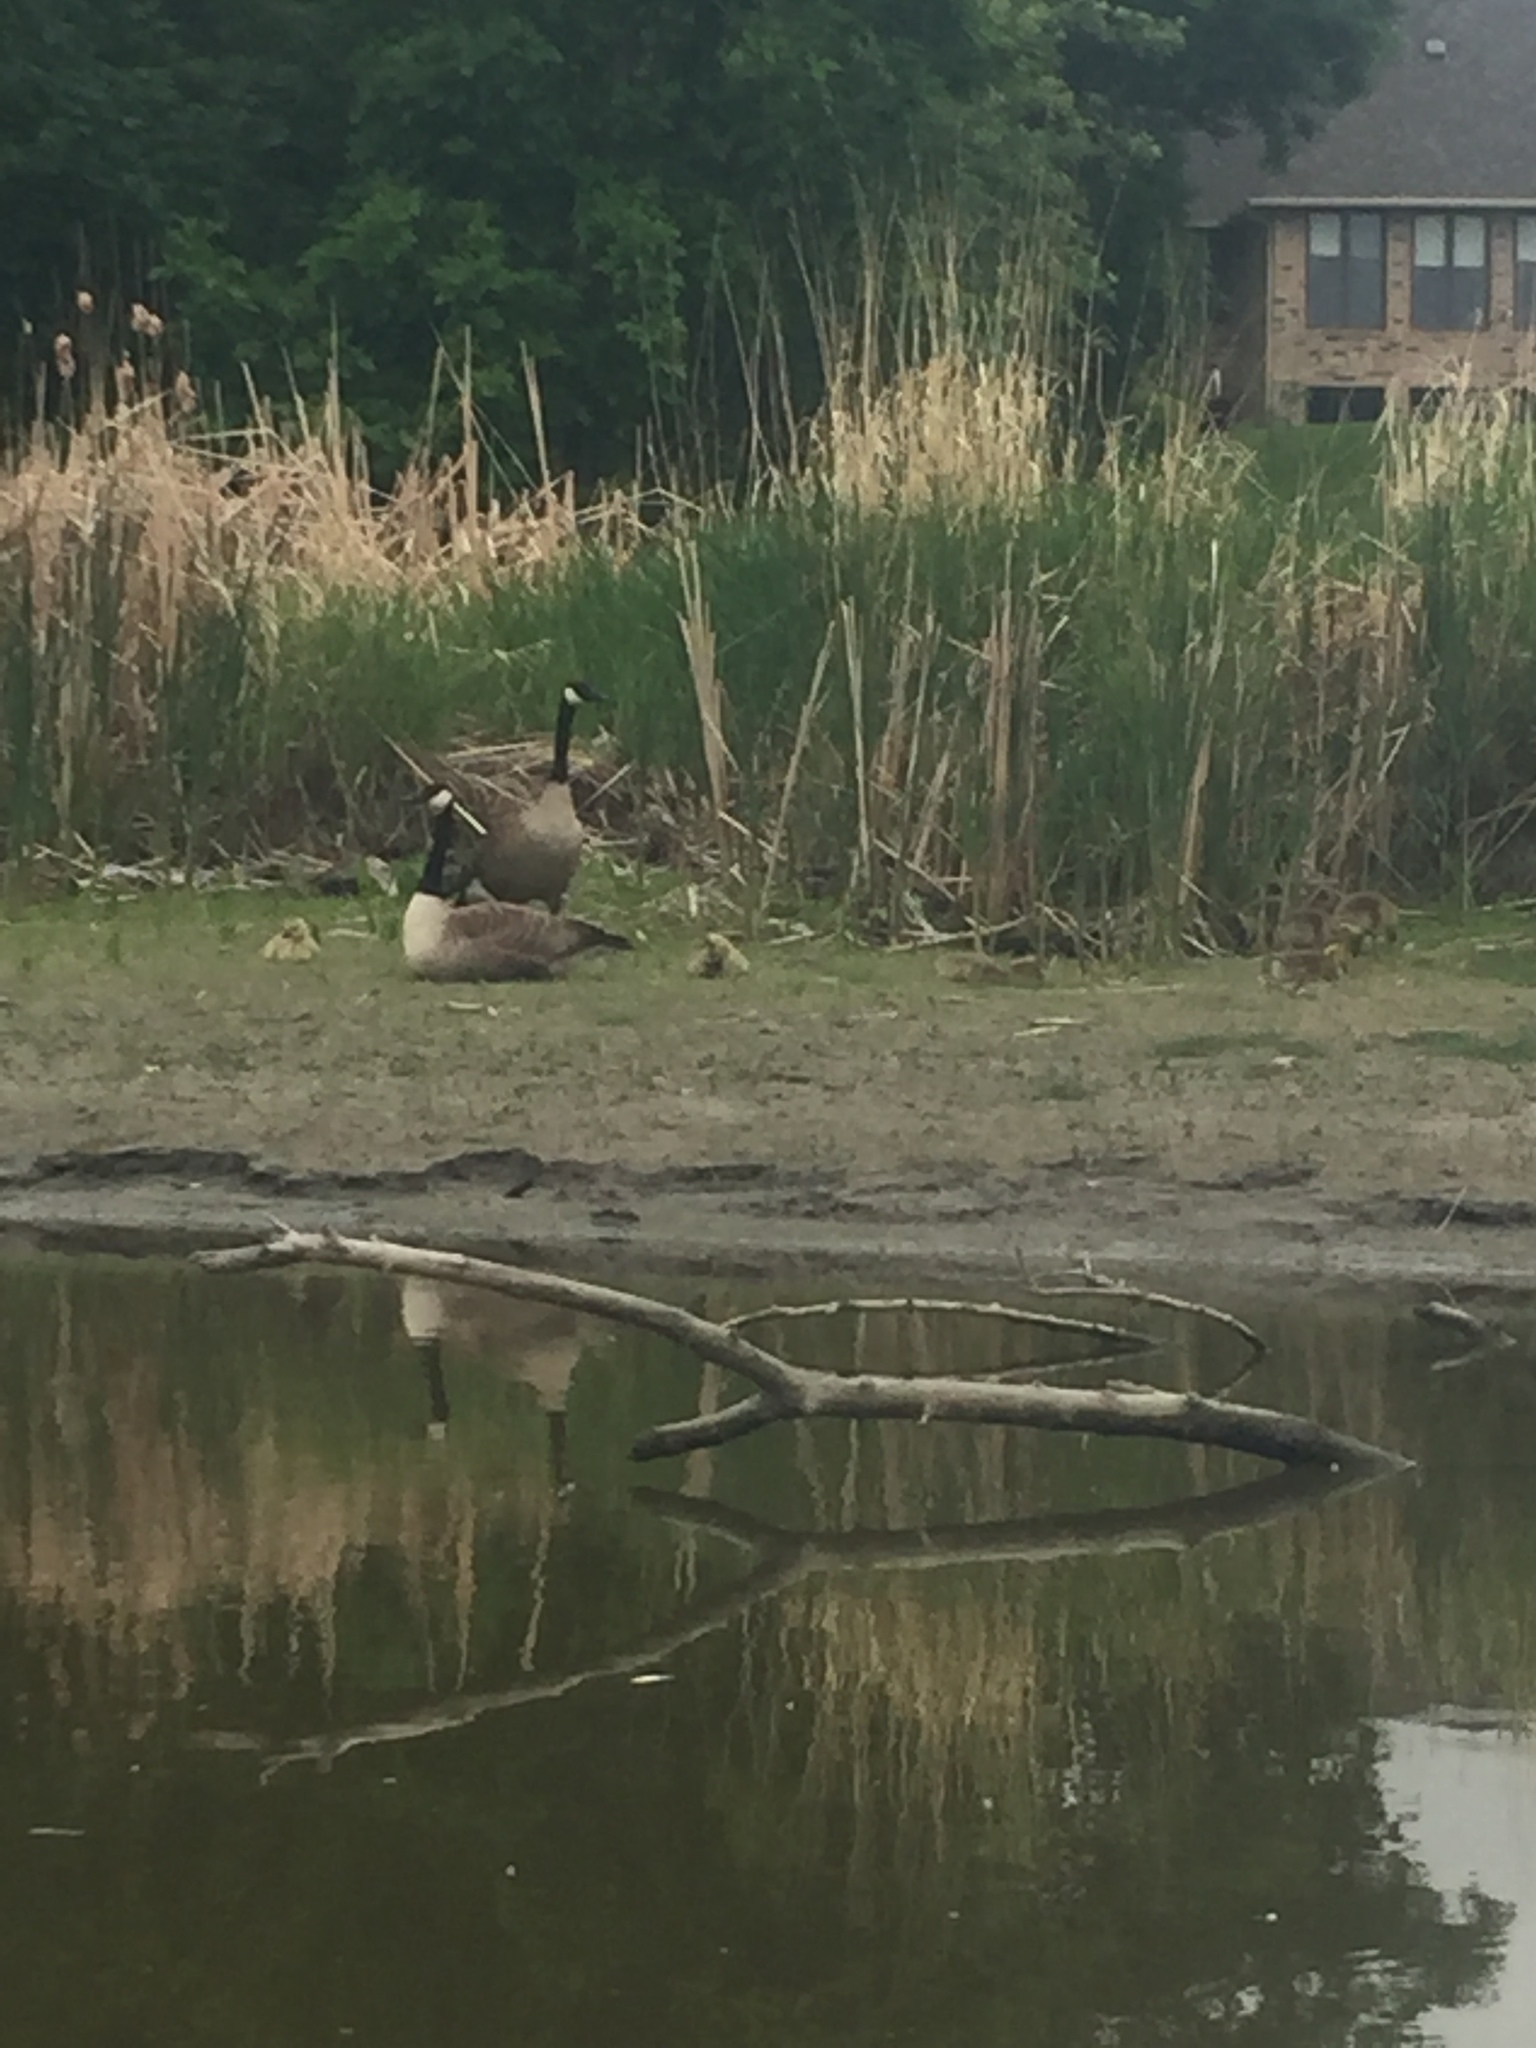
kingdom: Animalia
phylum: Chordata
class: Aves
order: Anseriformes
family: Anatidae
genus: Branta
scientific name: Branta canadensis
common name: Canada goose
